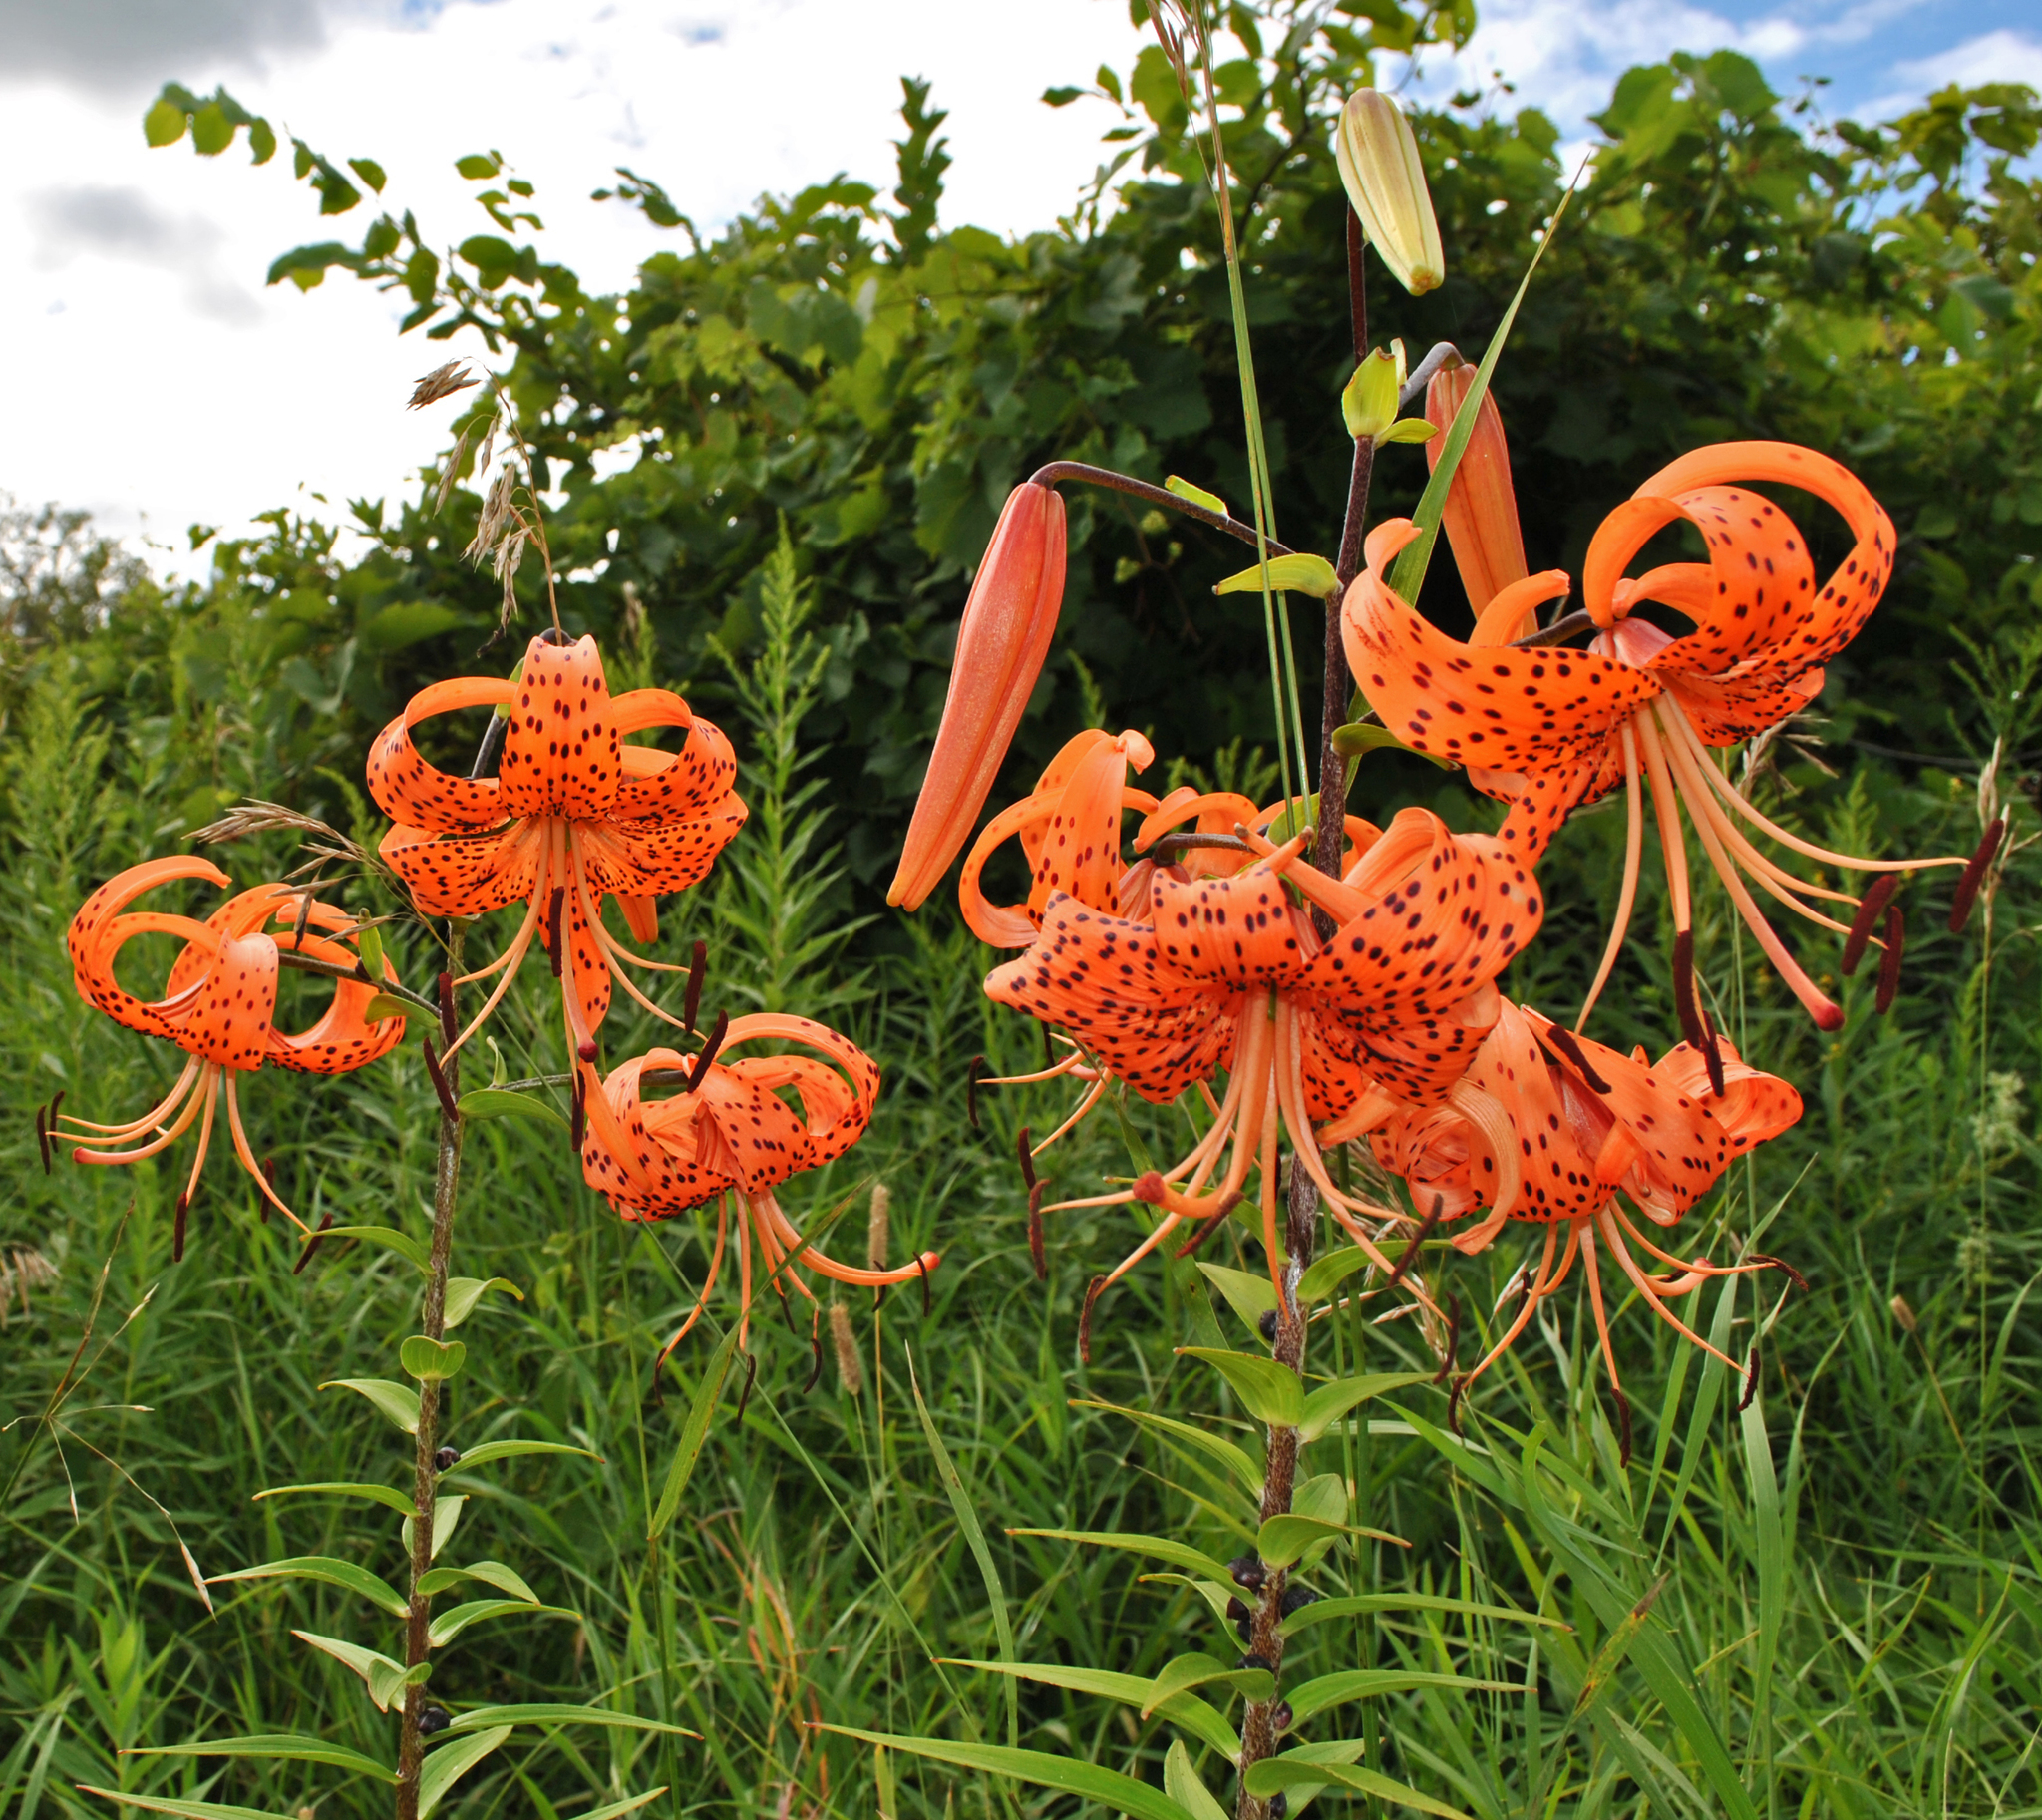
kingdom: Plantae
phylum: Tracheophyta
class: Liliopsida
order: Liliales
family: Liliaceae
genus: Lilium
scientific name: Lilium lancifolium
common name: Tiger lily
